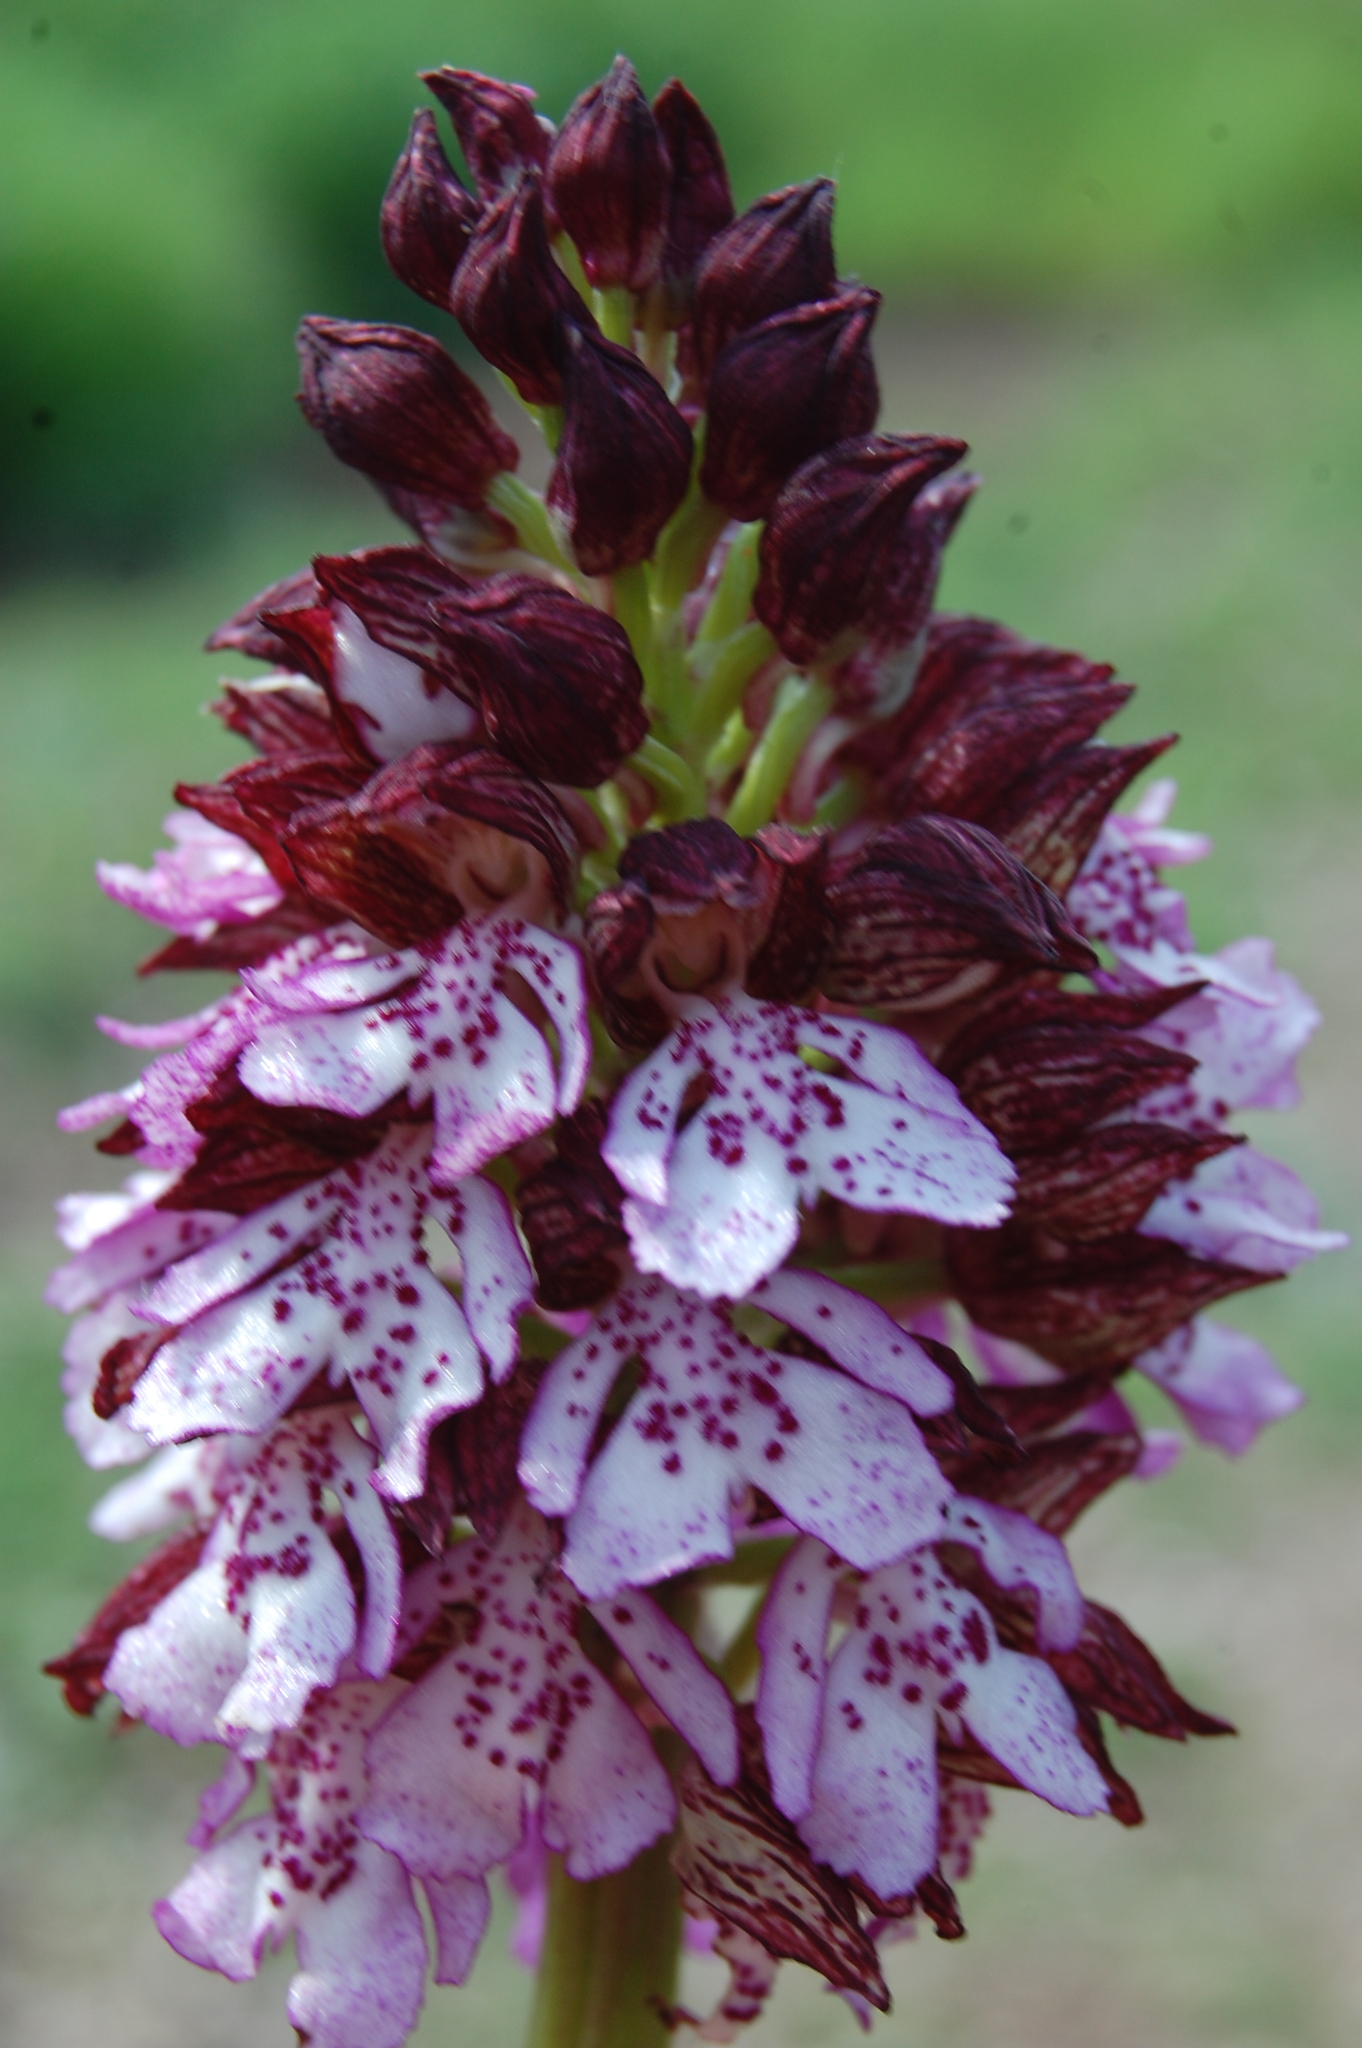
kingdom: Plantae
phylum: Tracheophyta
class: Liliopsida
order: Asparagales
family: Orchidaceae
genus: Orchis
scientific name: Orchis purpurea
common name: Lady orchid
